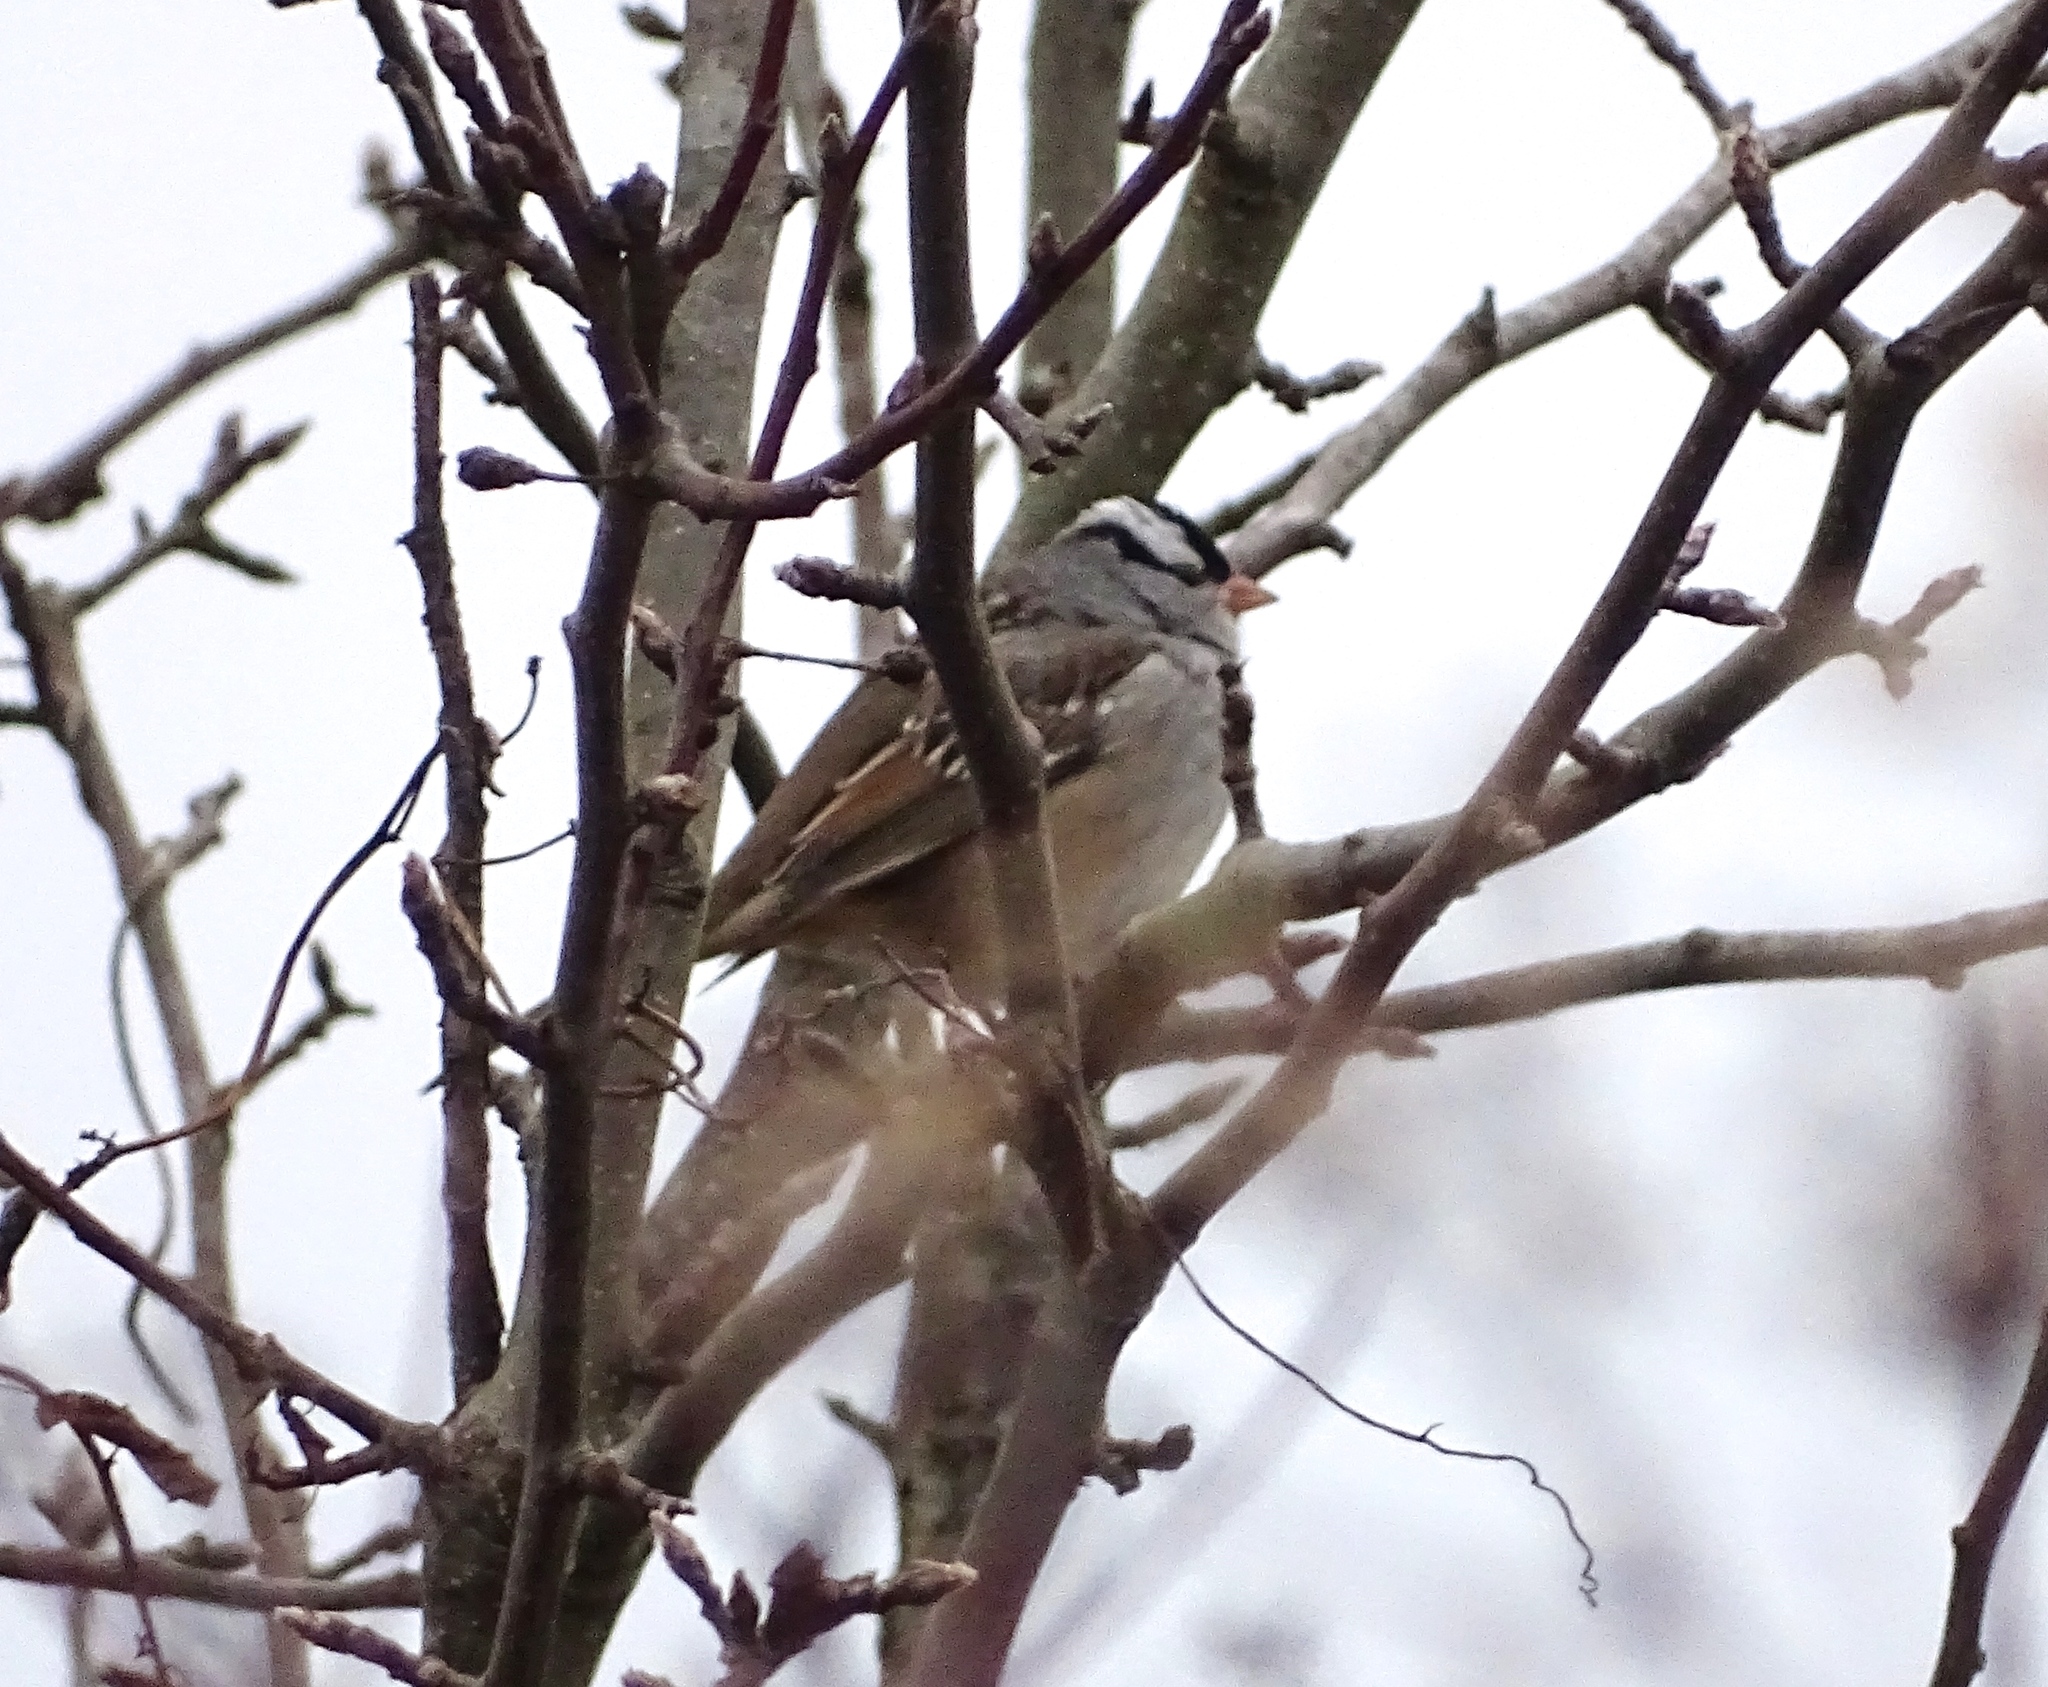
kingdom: Animalia
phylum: Chordata
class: Aves
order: Passeriformes
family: Passerellidae
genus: Zonotrichia
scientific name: Zonotrichia leucophrys
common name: White-crowned sparrow
